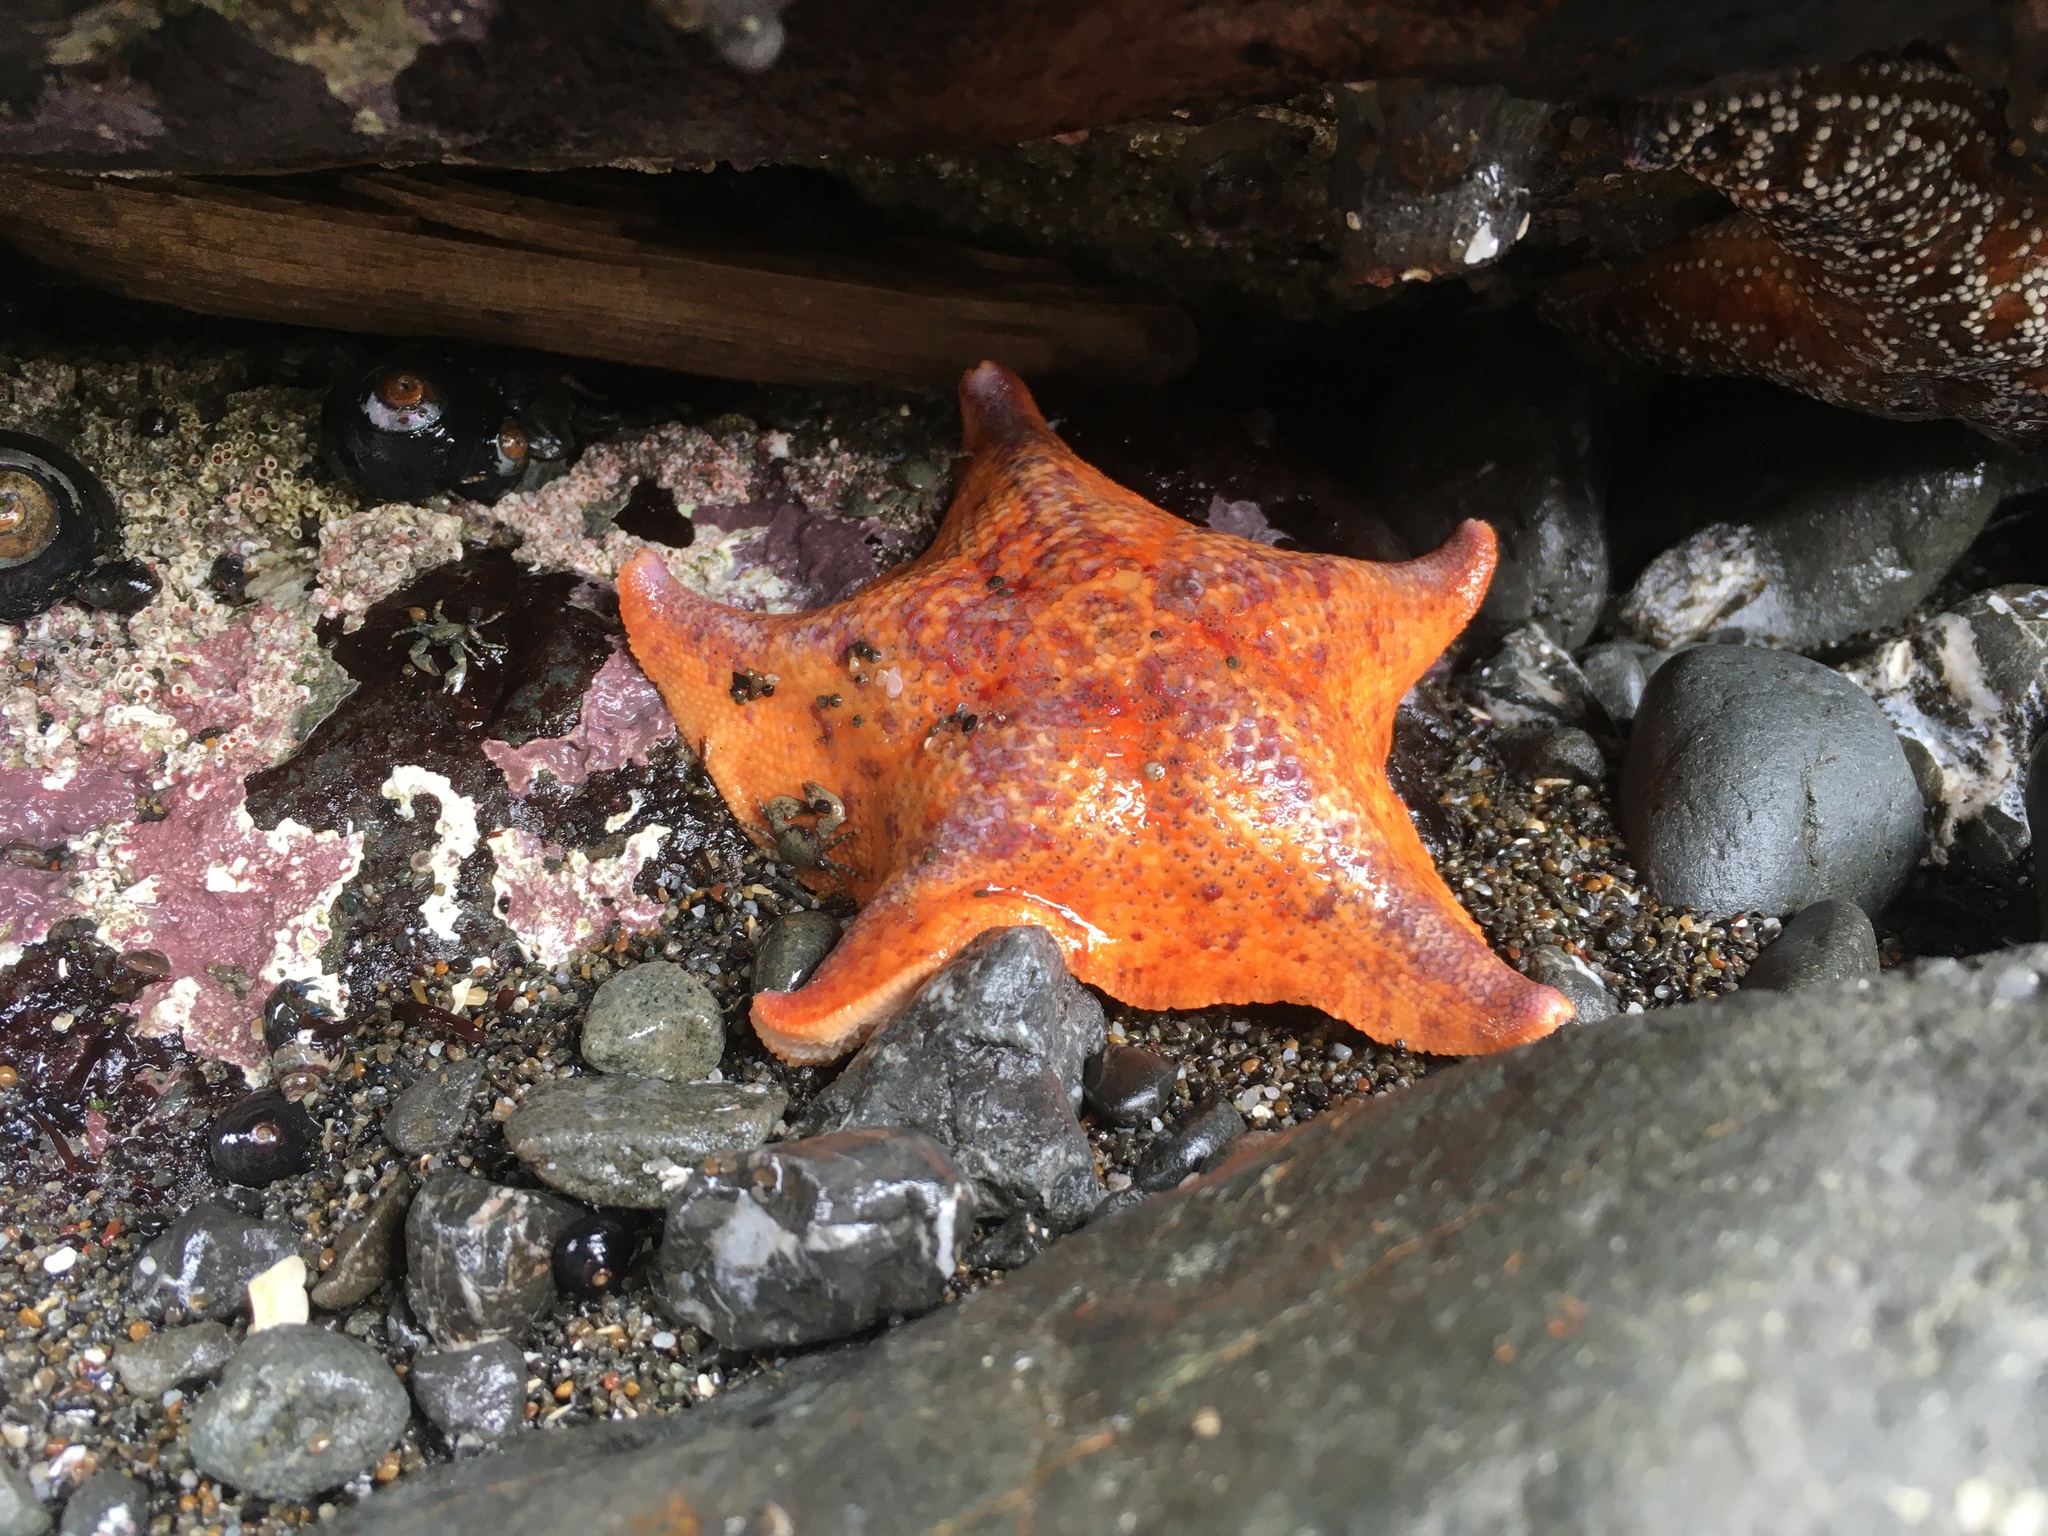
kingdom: Animalia
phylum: Echinodermata
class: Asteroidea
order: Valvatida
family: Asterinidae
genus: Patiria
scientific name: Patiria miniata
